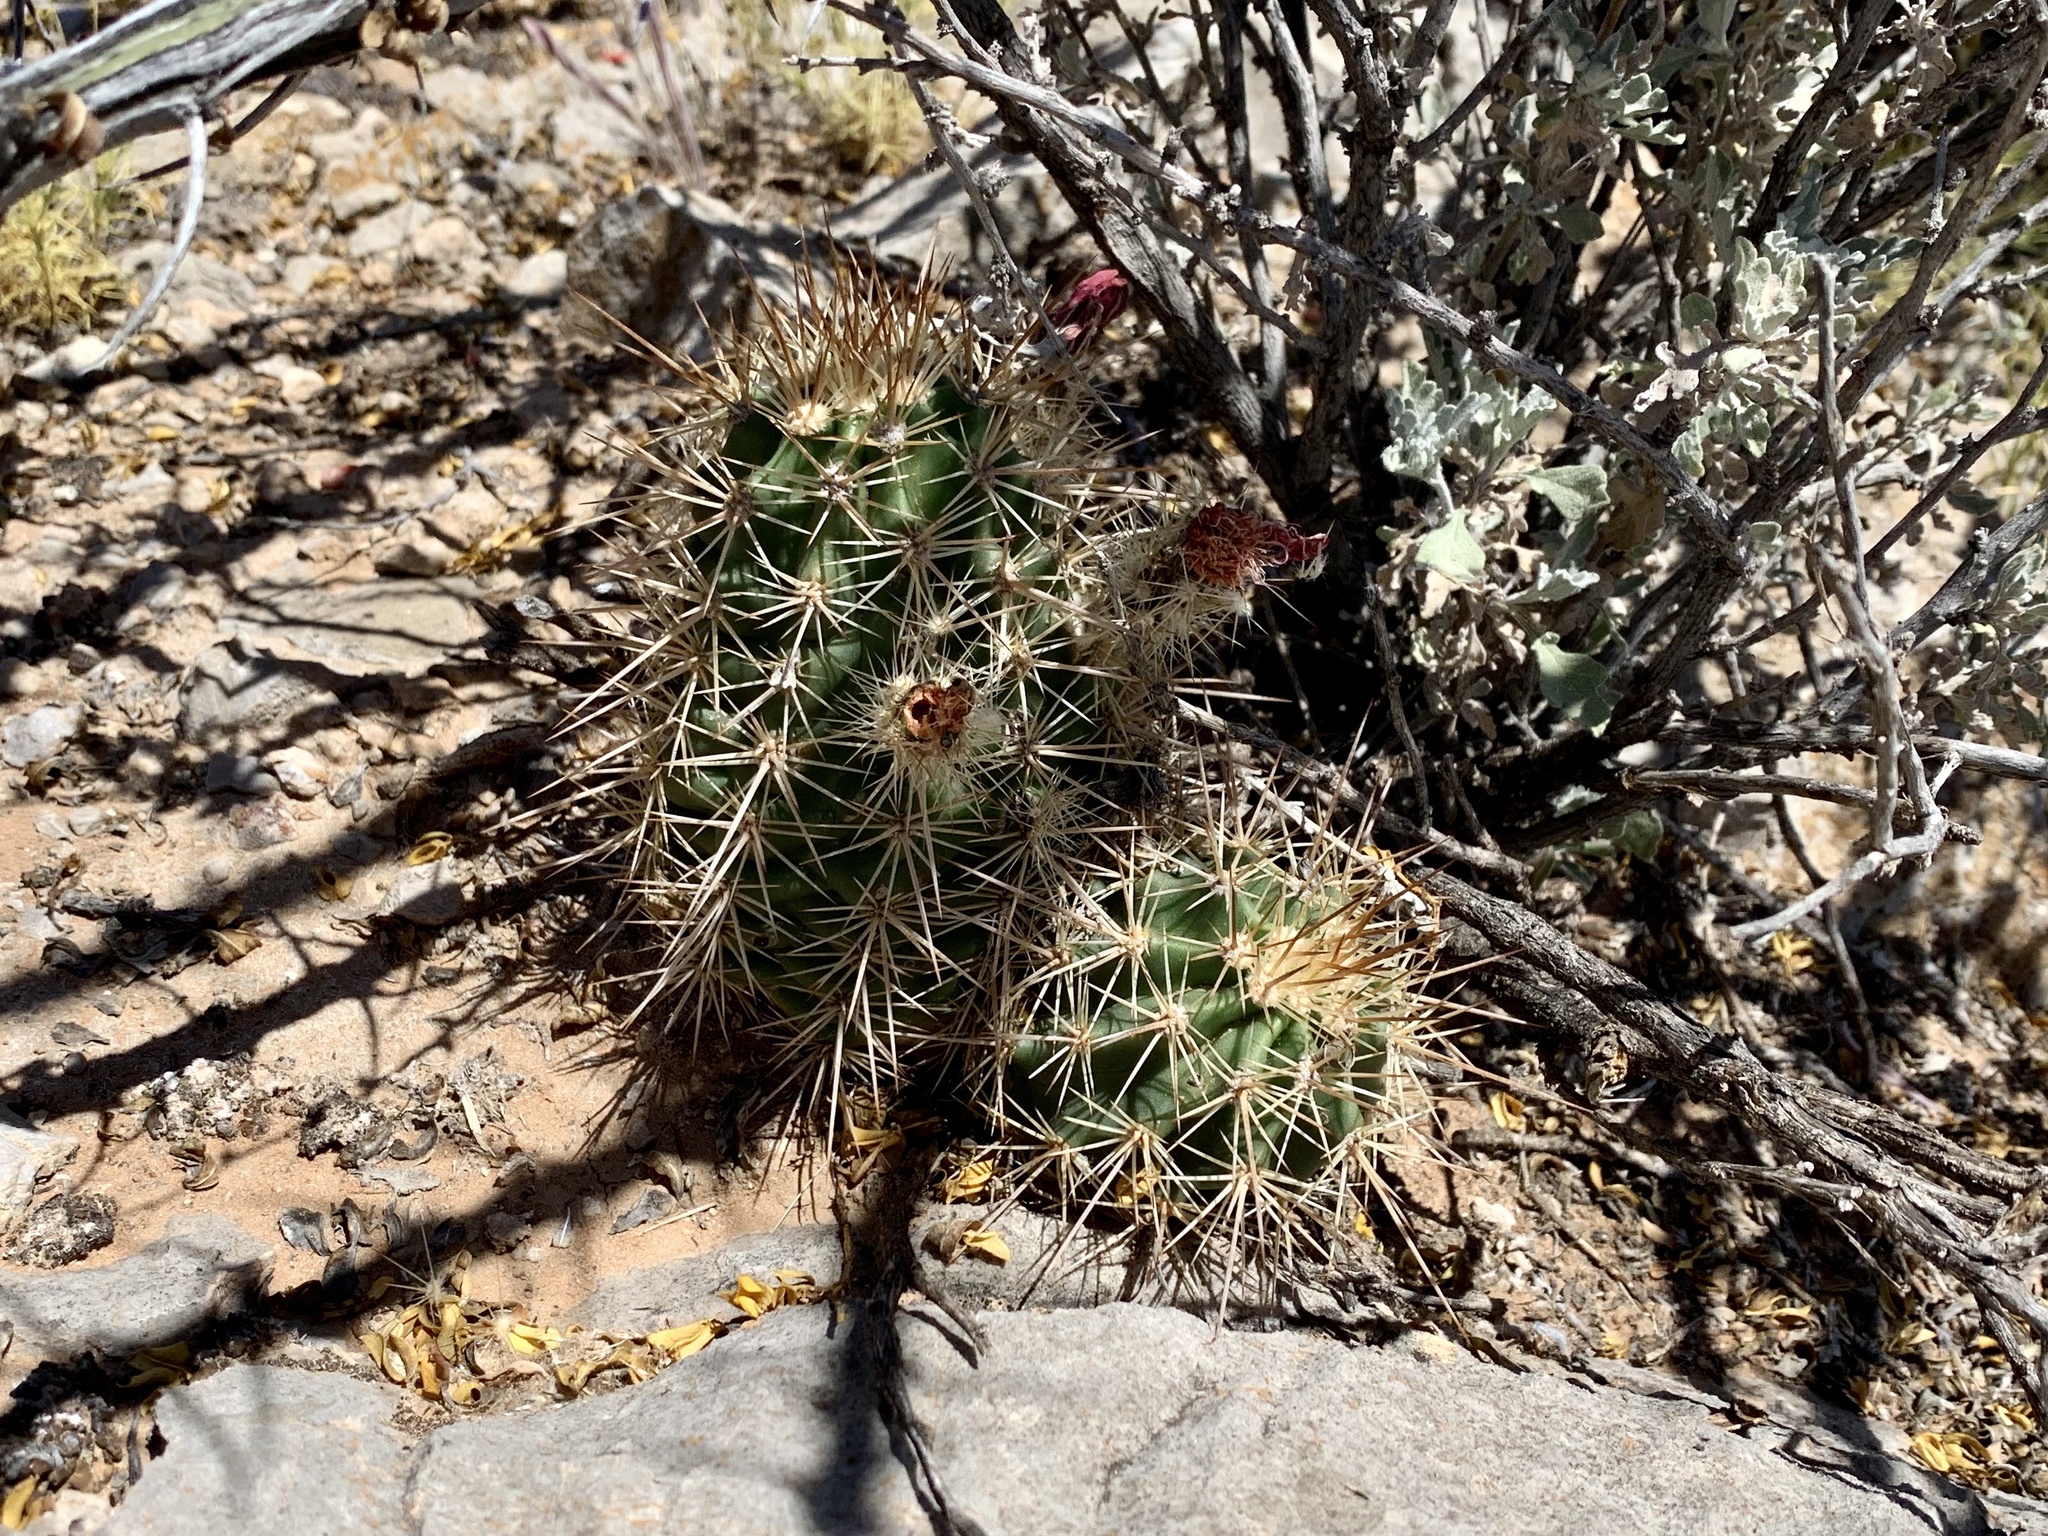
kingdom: Plantae
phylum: Tracheophyta
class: Magnoliopsida
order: Caryophyllales
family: Cactaceae
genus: Echinocereus
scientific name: Echinocereus coccineus
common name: Scarlet hedgehog cactus
